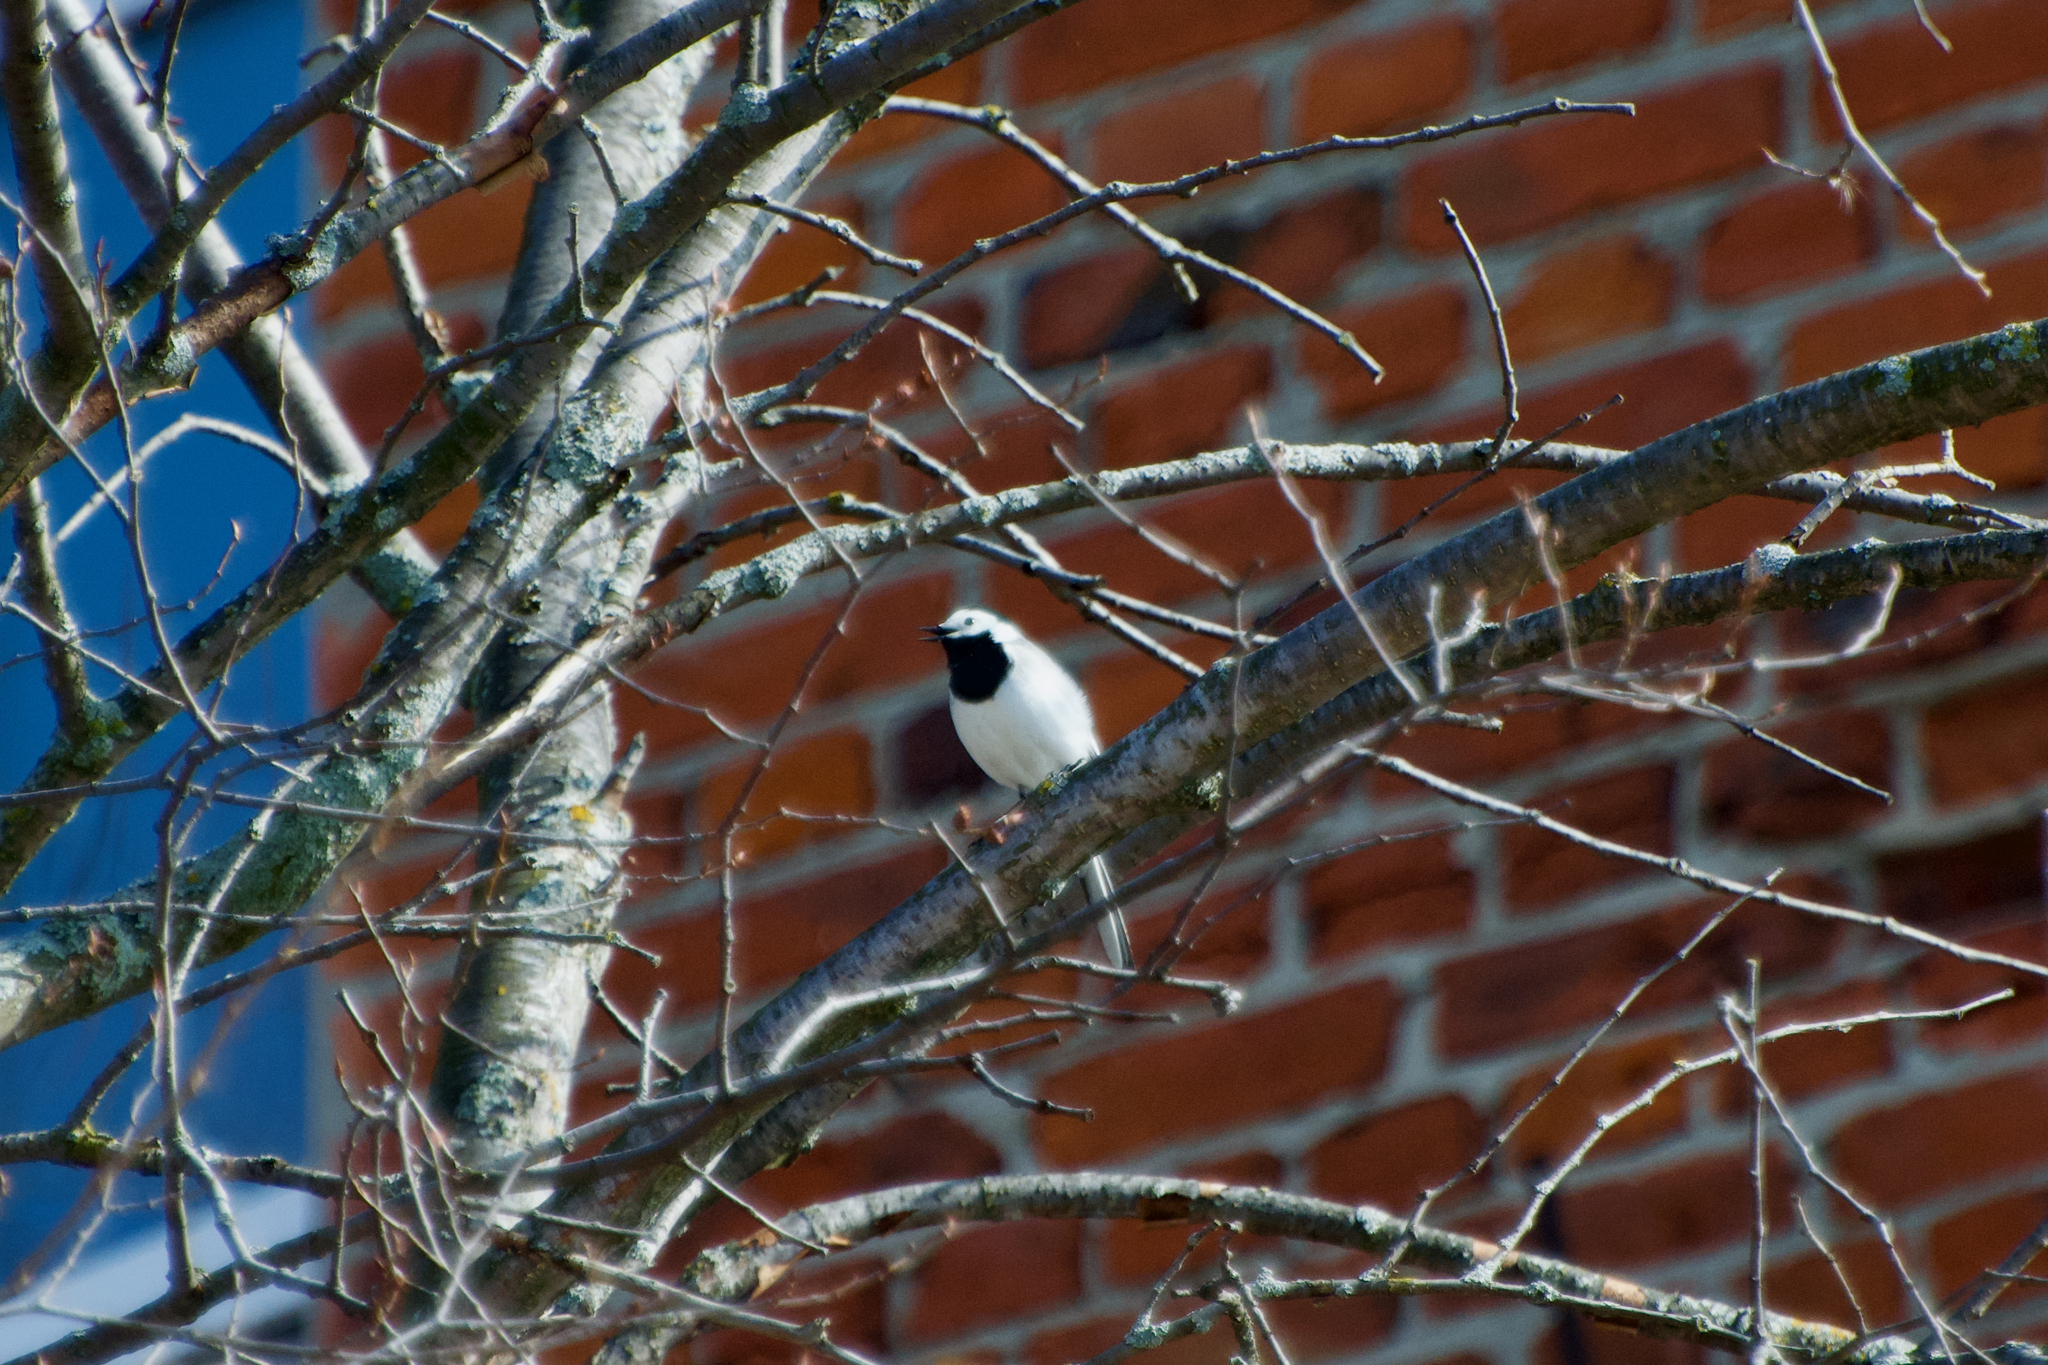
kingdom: Animalia
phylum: Chordata
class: Aves
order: Passeriformes
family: Motacillidae
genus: Motacilla
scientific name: Motacilla alba
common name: White wagtail
